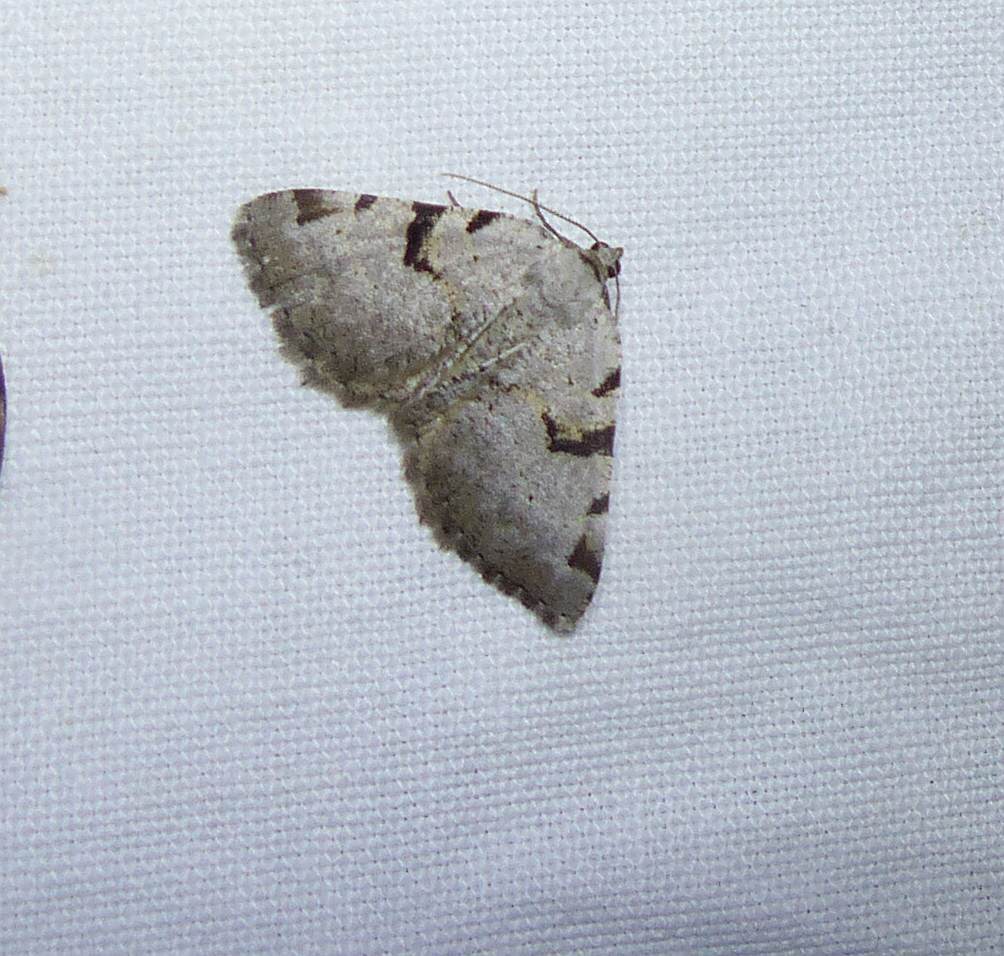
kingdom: Animalia
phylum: Arthropoda
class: Insecta
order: Lepidoptera
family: Geometridae
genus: Macaria
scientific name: Macaria subcessaria
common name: Barred angle
